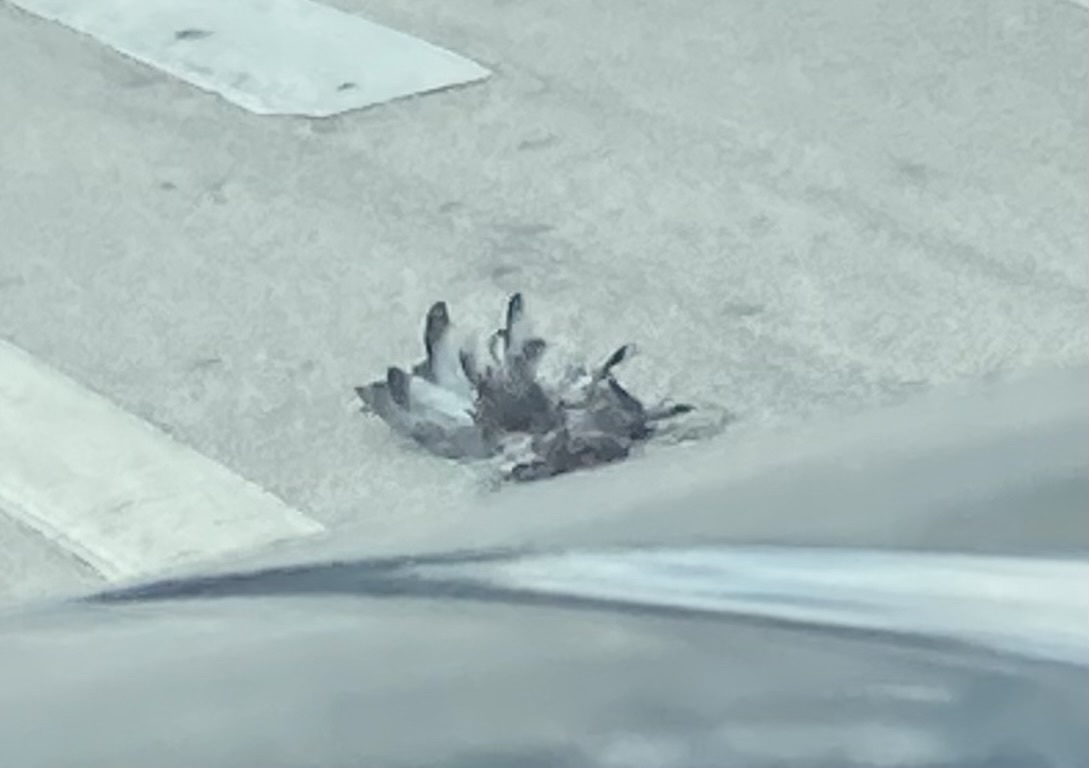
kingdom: Animalia
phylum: Chordata
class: Aves
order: Columbiformes
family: Columbidae
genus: Columba
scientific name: Columba livia
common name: Rock pigeon
